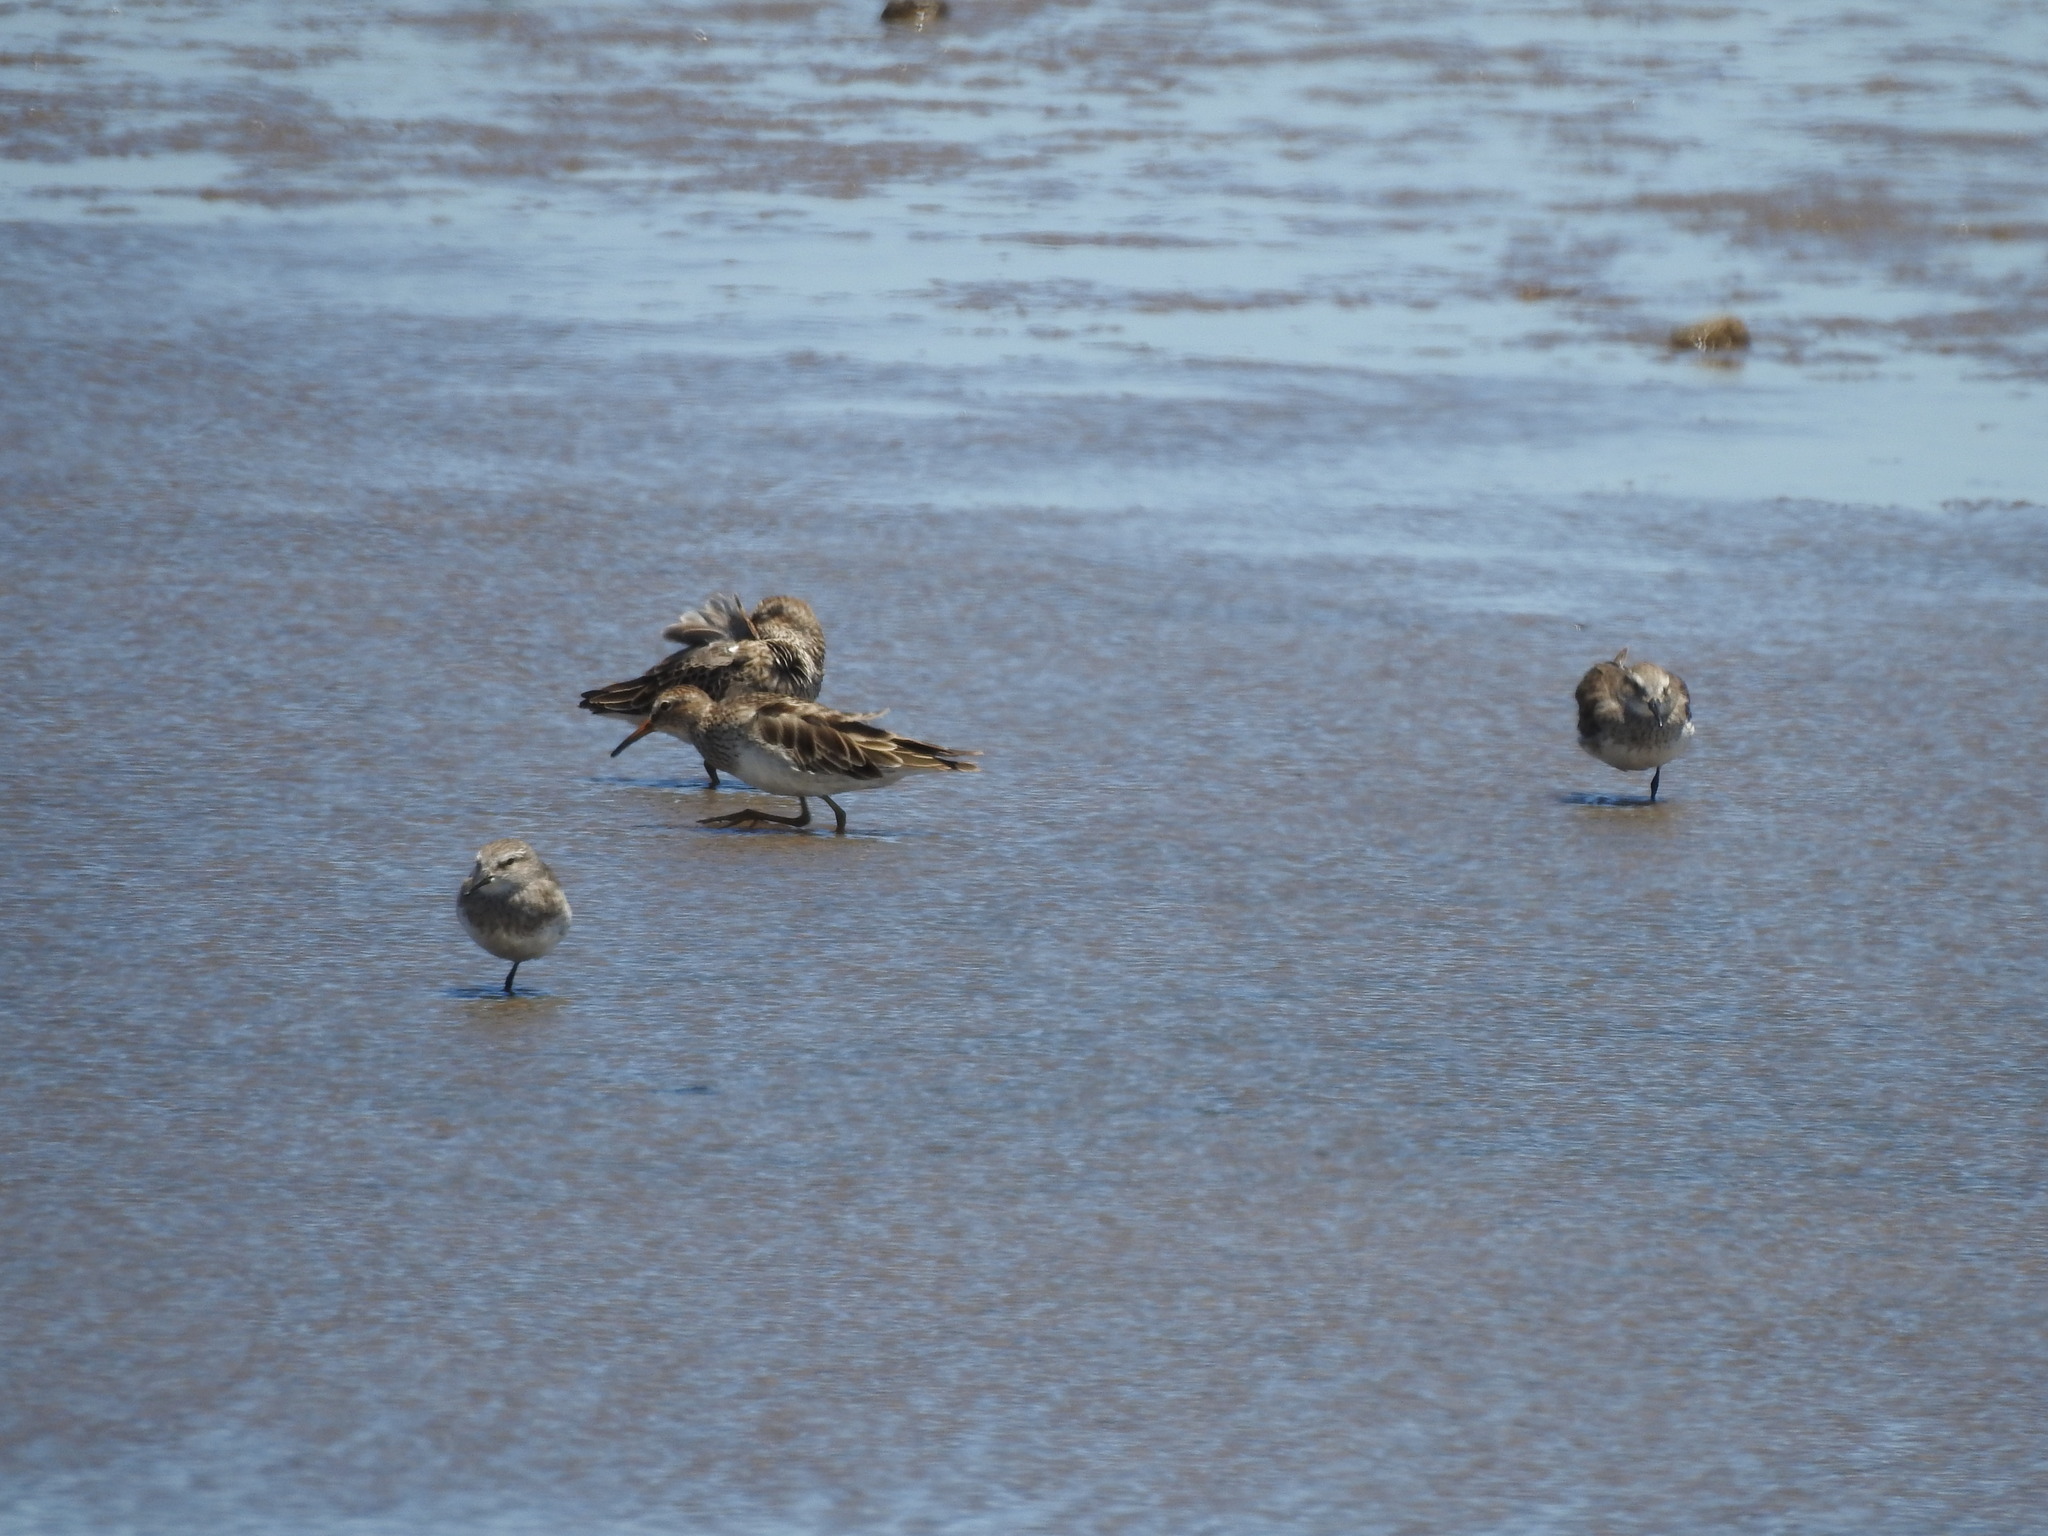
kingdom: Animalia
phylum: Chordata
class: Aves
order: Charadriiformes
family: Scolopacidae
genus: Calidris
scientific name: Calidris melanotos
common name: Pectoral sandpiper
